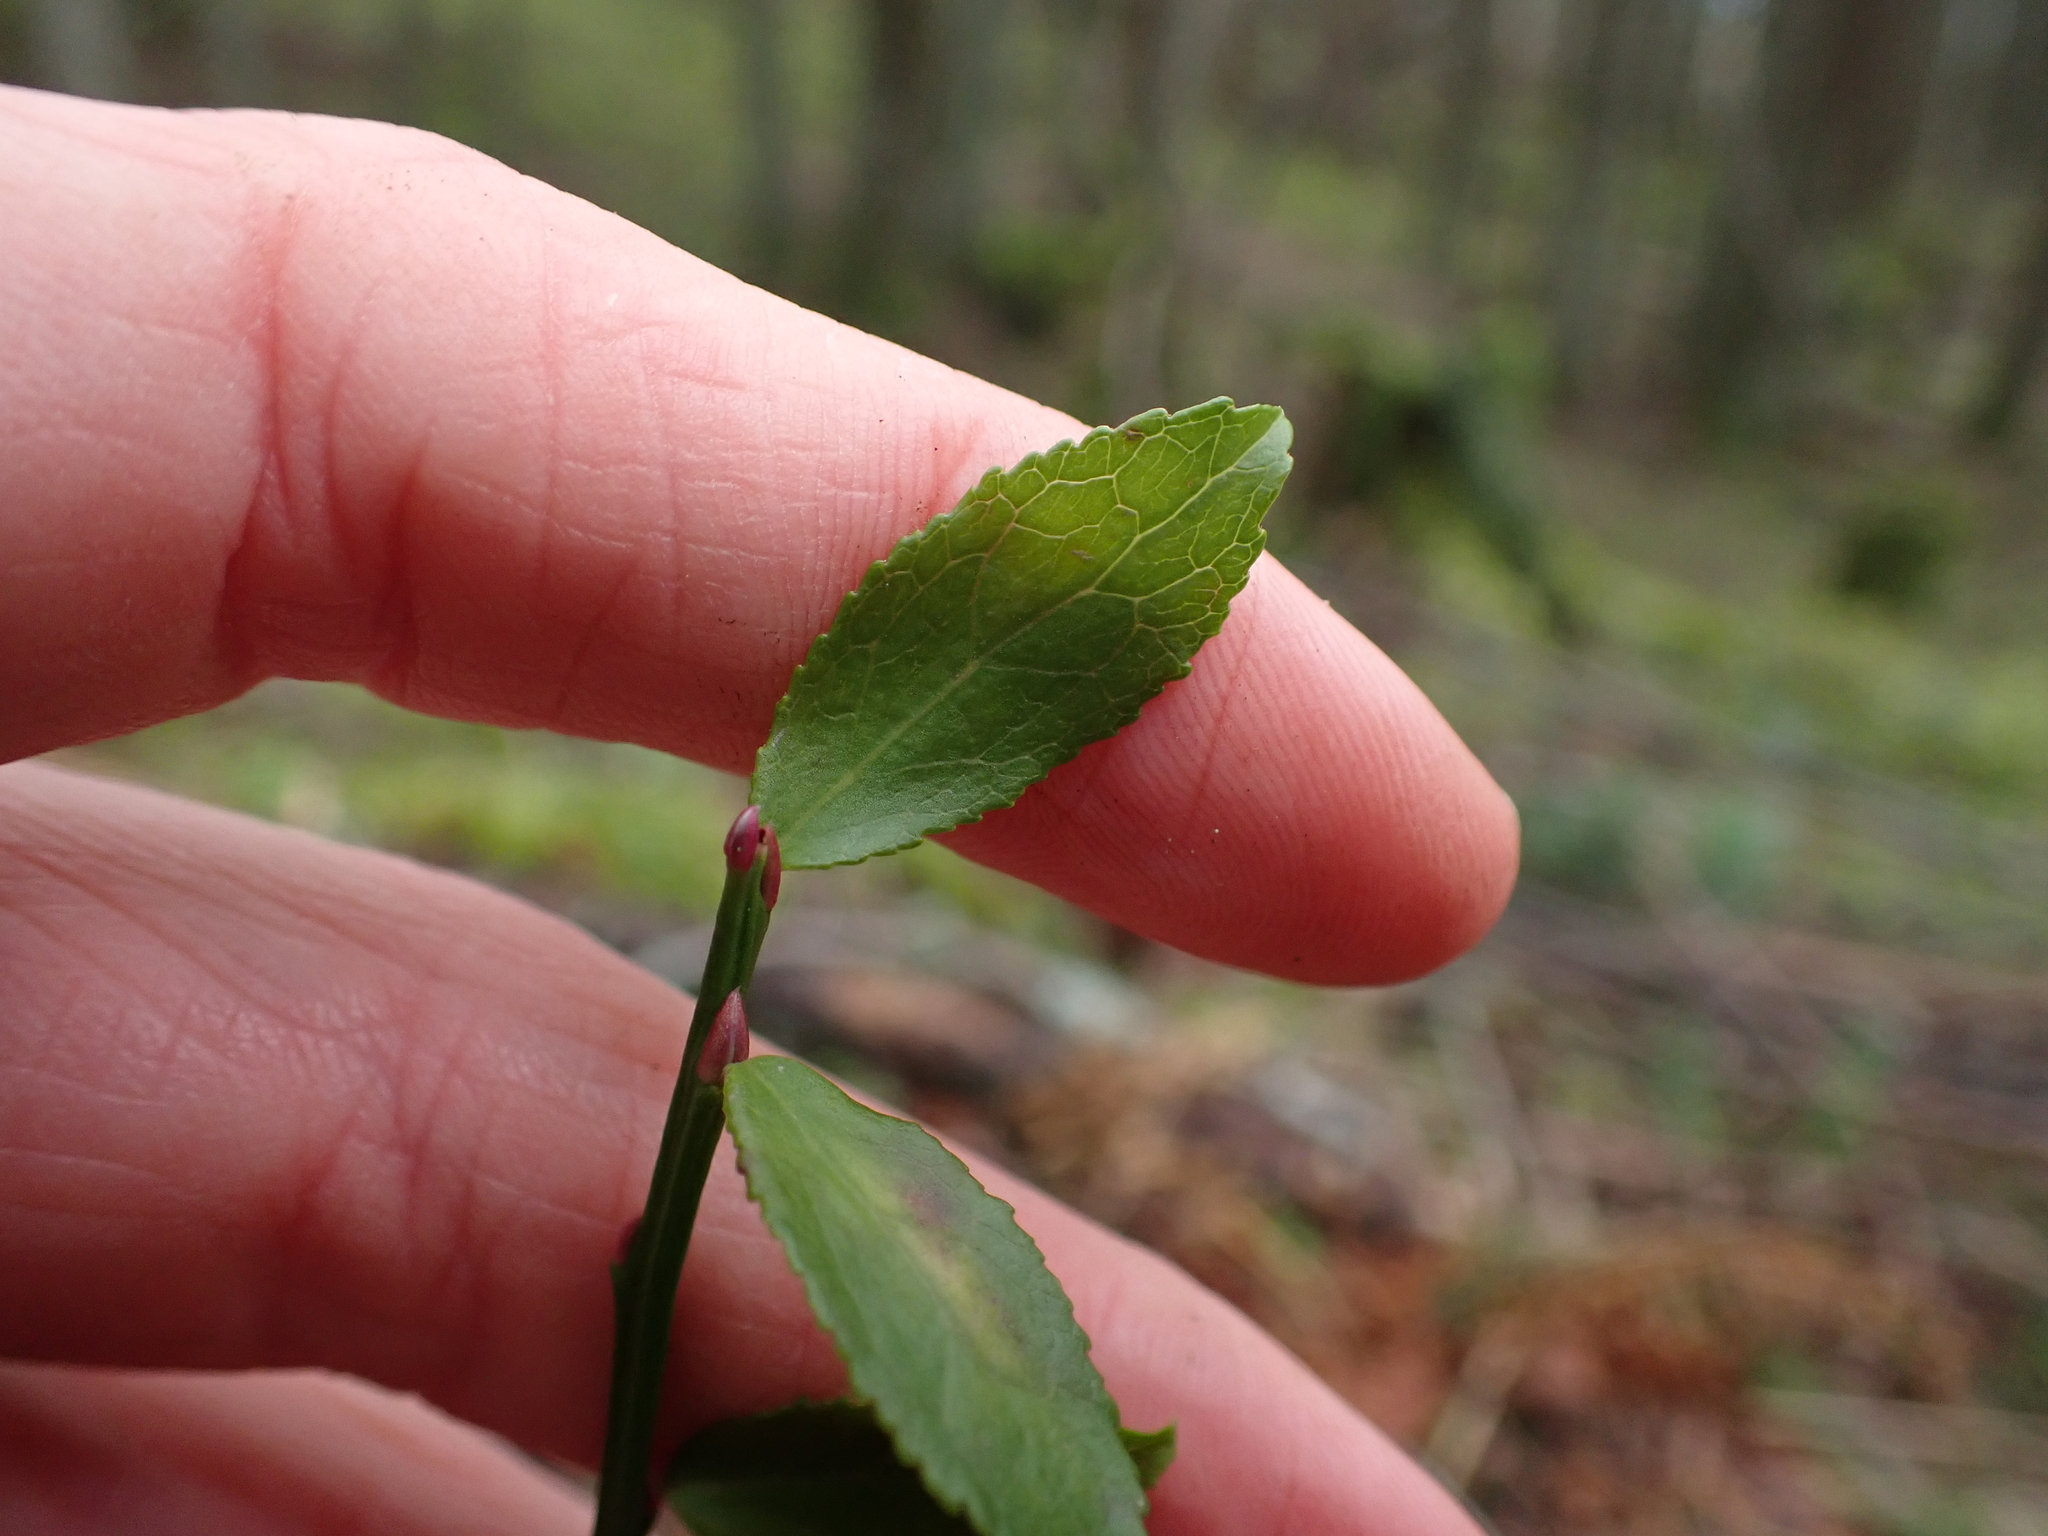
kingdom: Plantae
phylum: Tracheophyta
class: Magnoliopsida
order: Ericales
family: Ericaceae
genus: Vaccinium
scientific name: Vaccinium parvifolium
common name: Red-huckleberry
